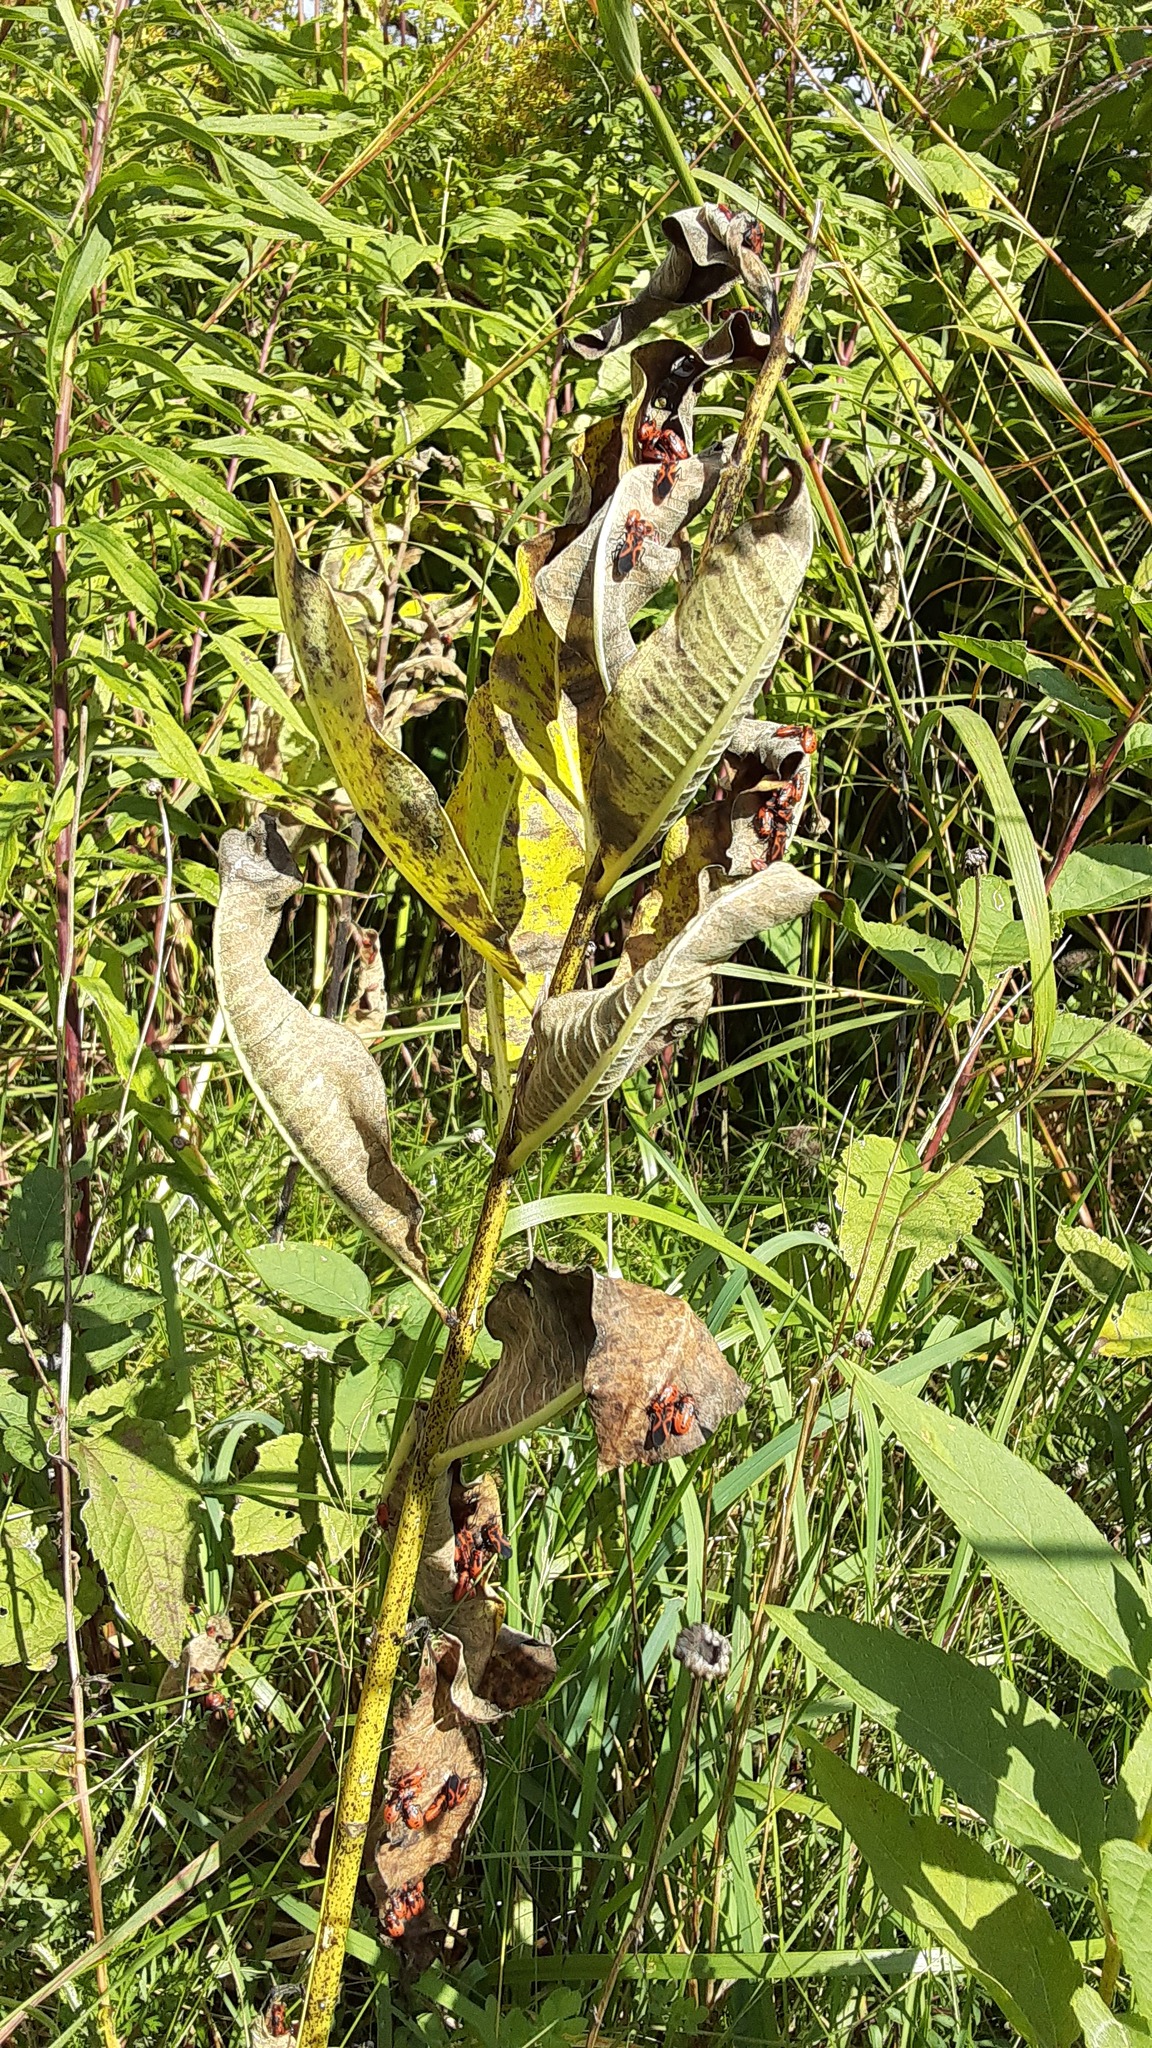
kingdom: Animalia
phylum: Arthropoda
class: Insecta
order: Hemiptera
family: Lygaeidae
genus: Lygaeus
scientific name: Lygaeus turcicus
